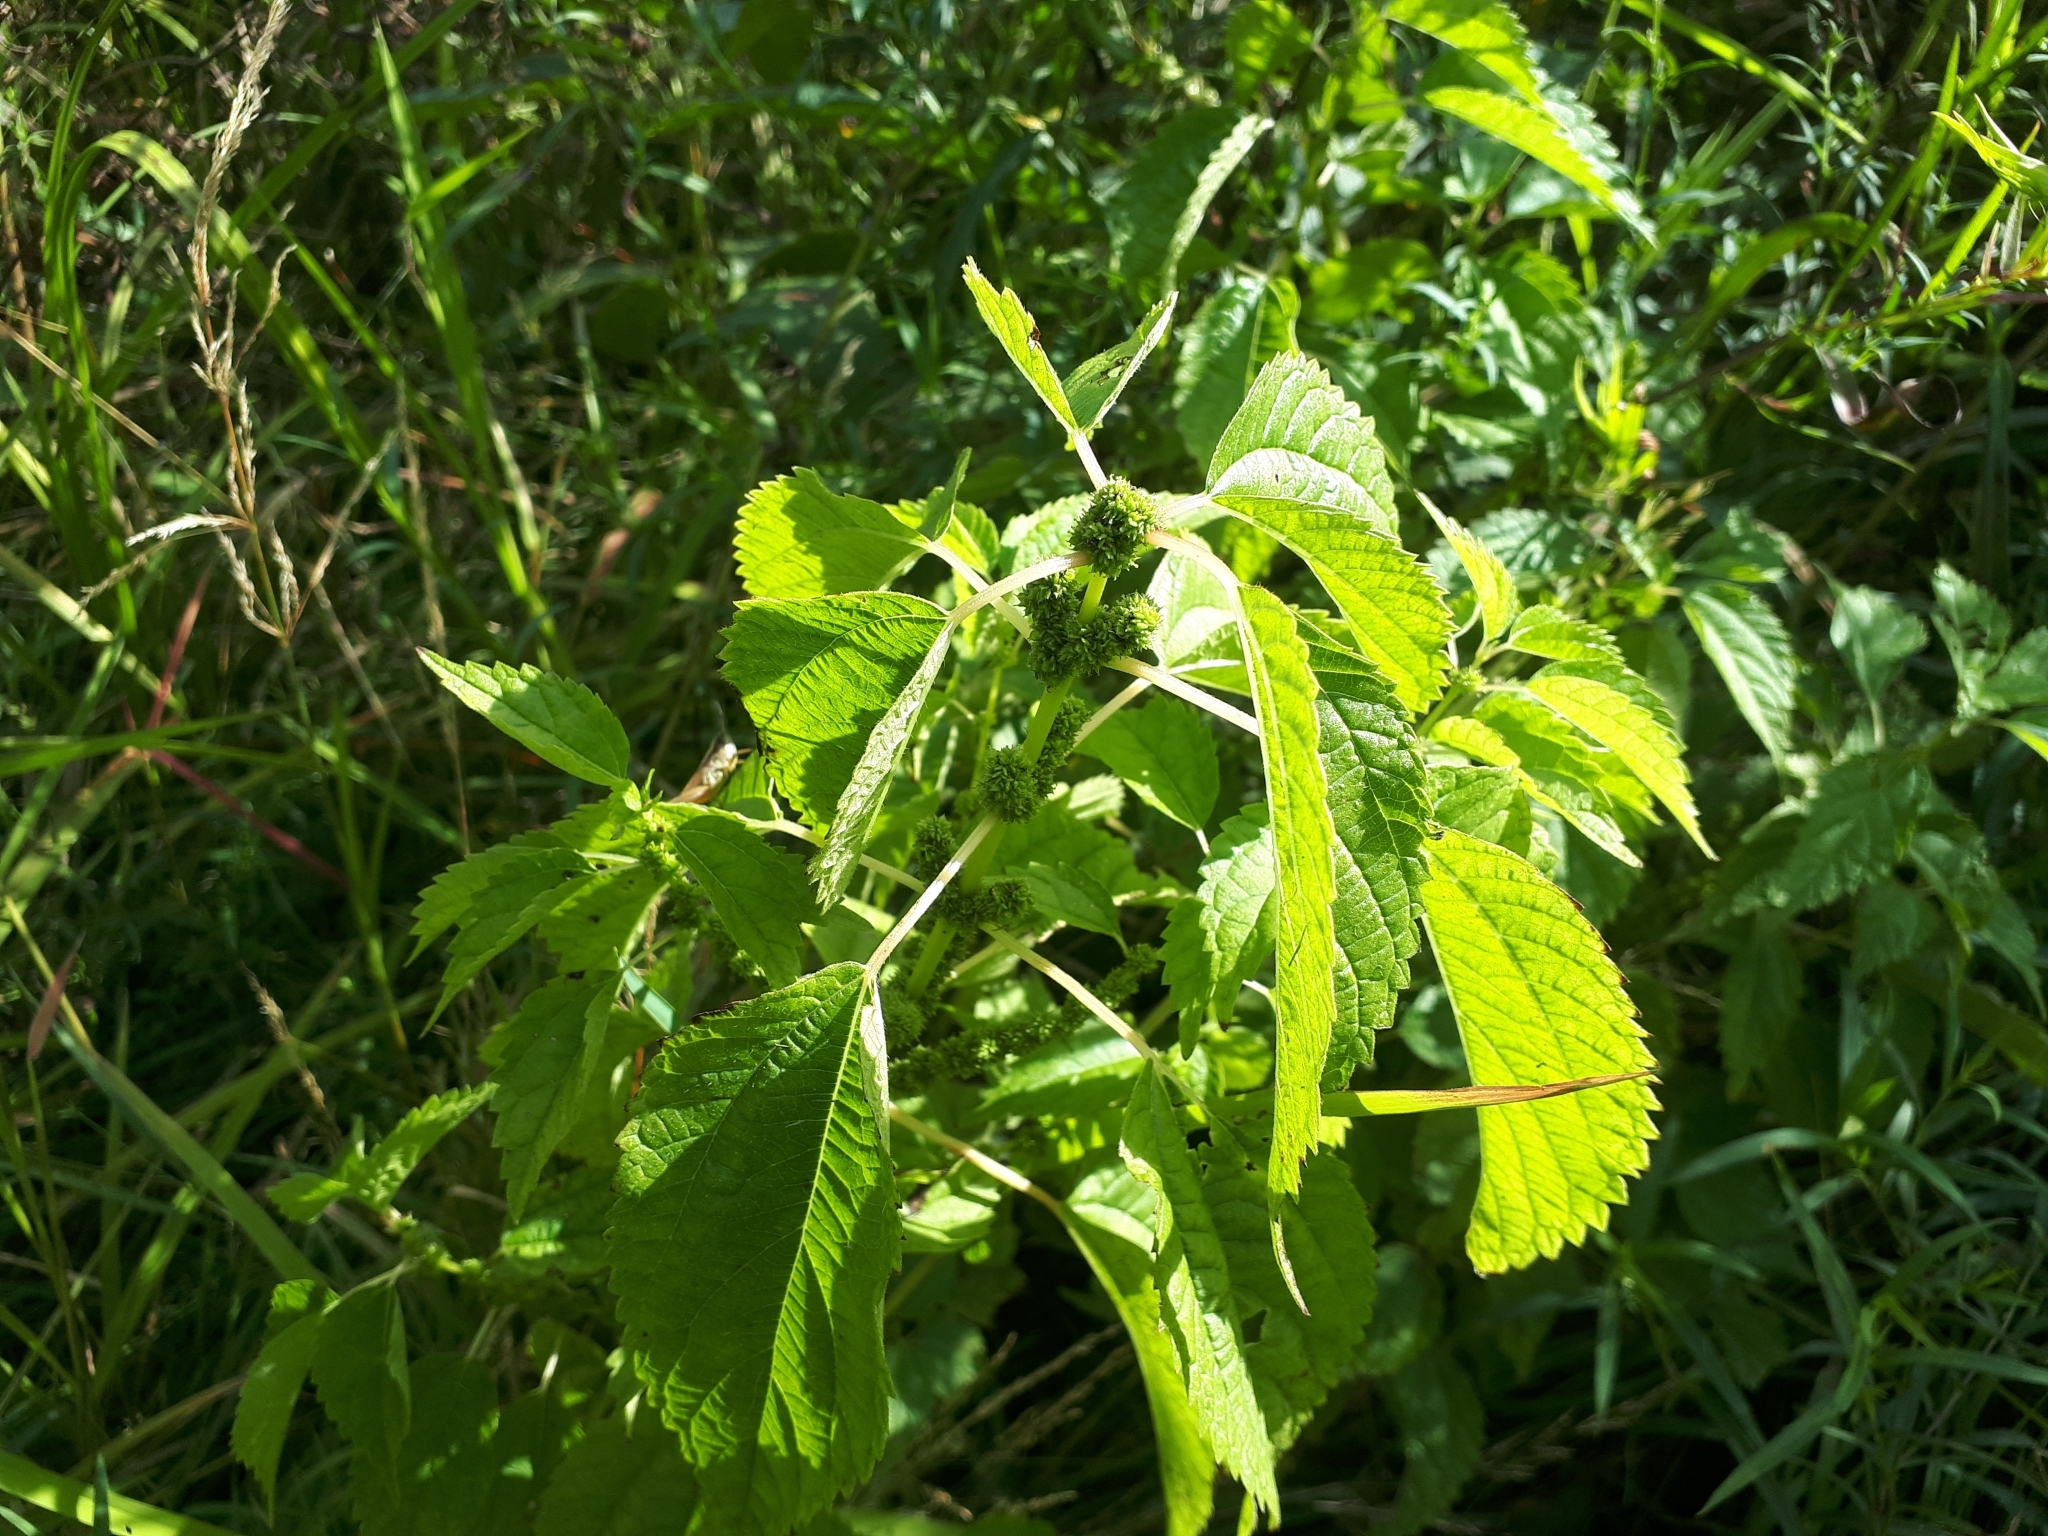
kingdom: Plantae
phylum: Tracheophyta
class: Magnoliopsida
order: Rosales
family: Urticaceae
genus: Boehmeria
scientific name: Boehmeria cylindrica
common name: Bog-hemp
